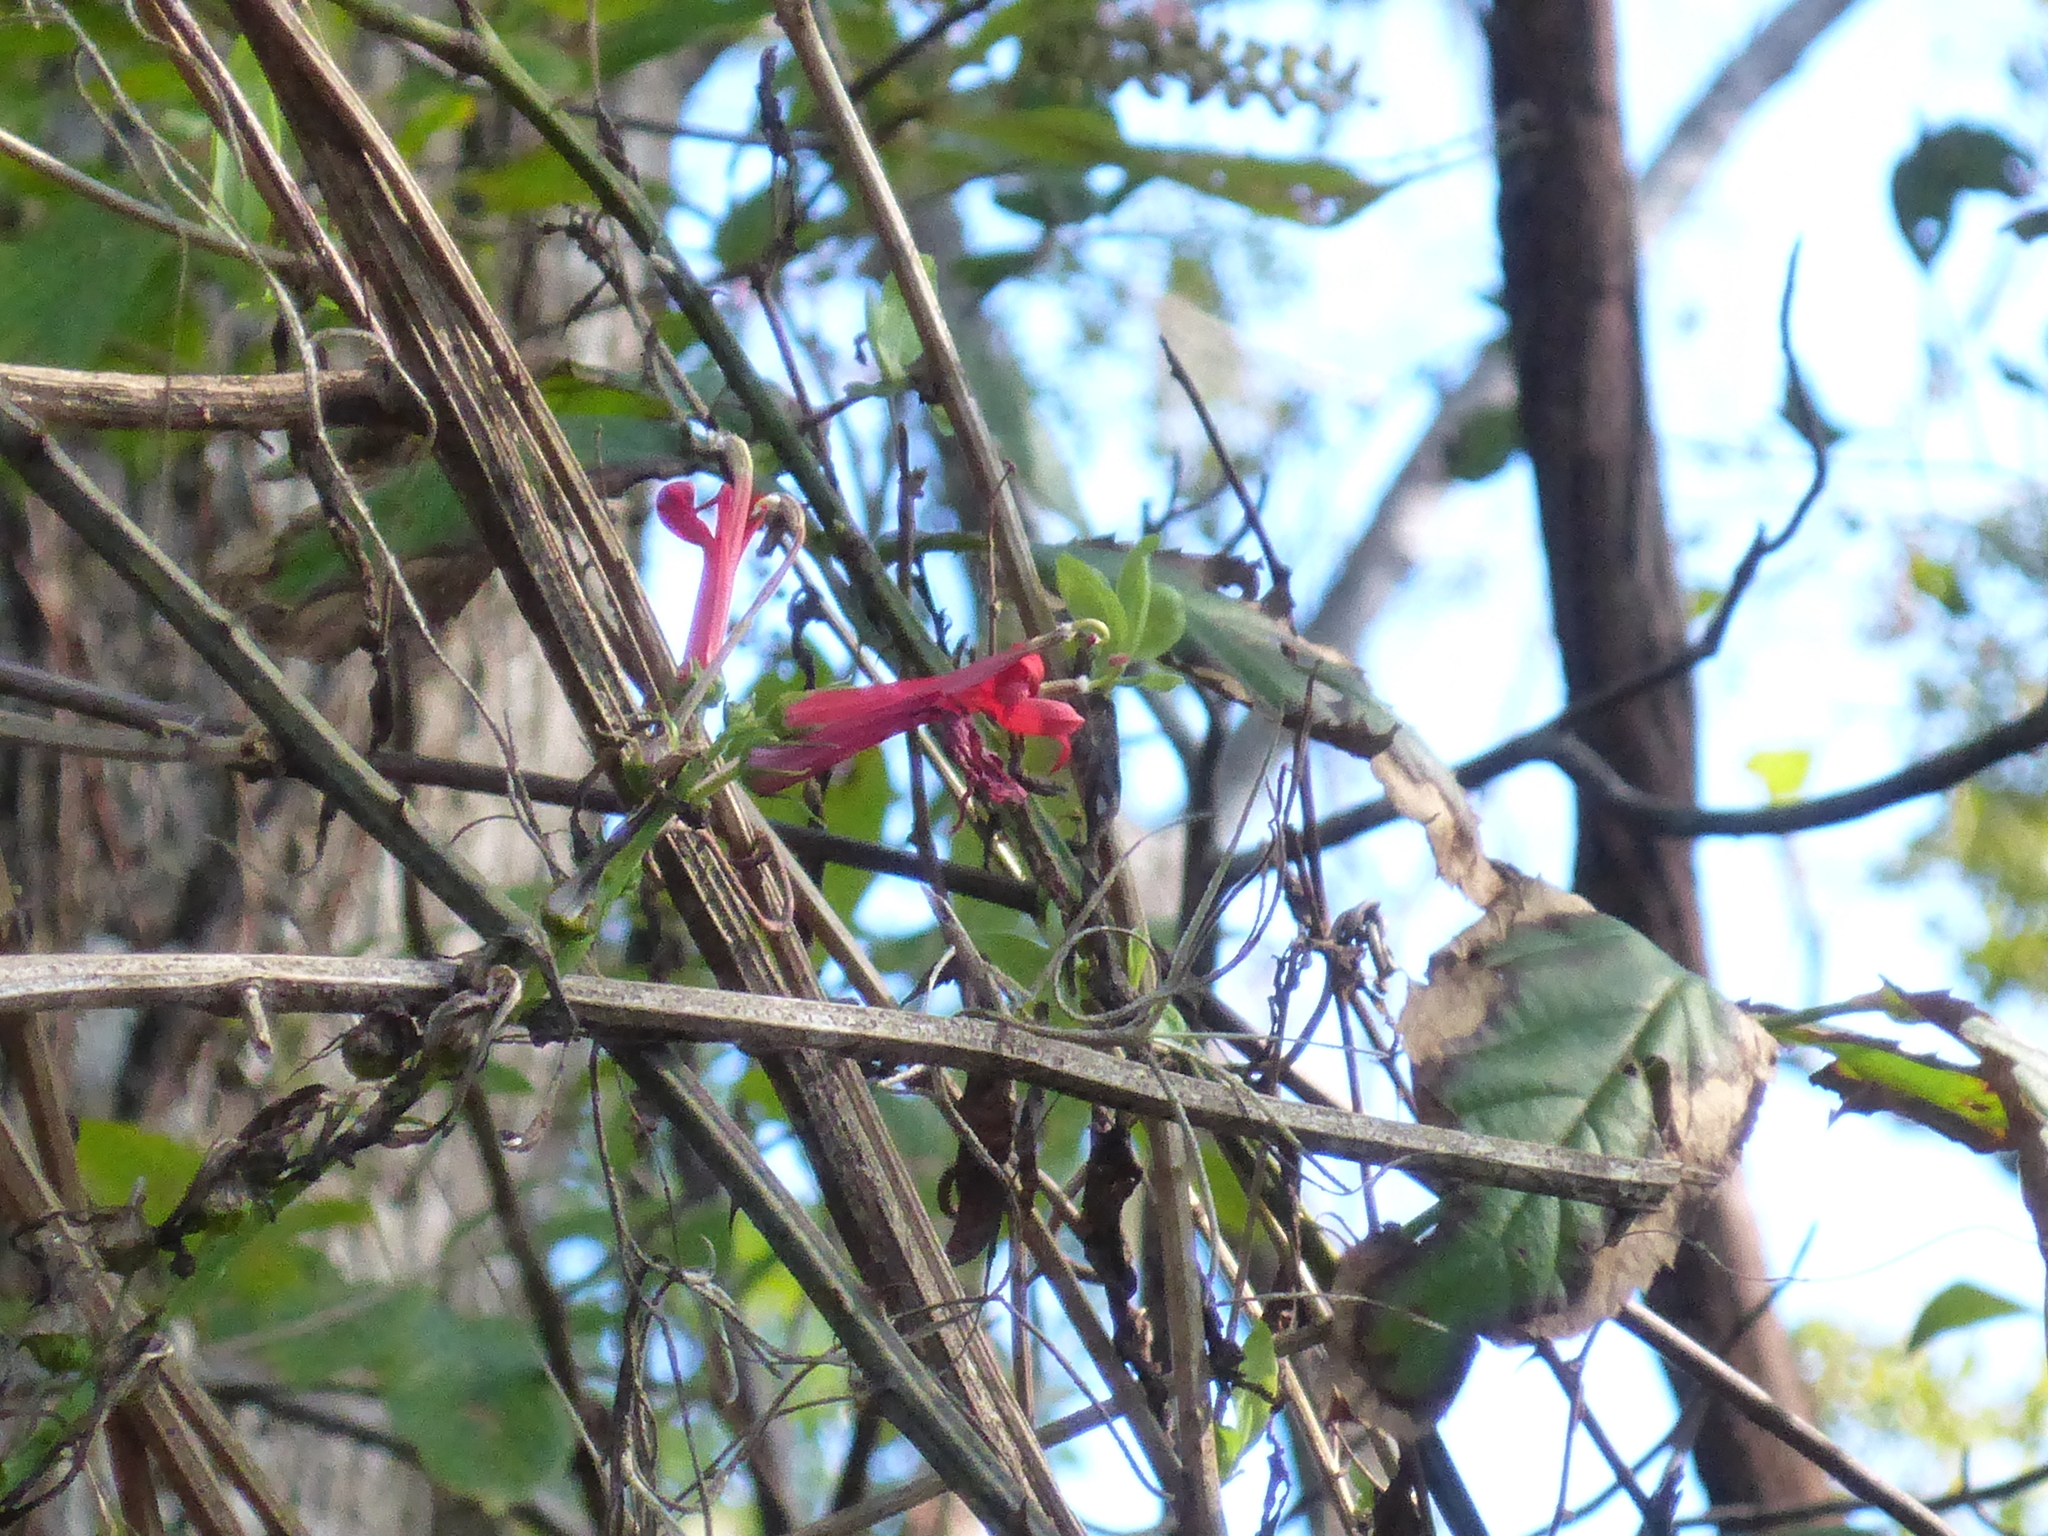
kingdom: Plantae
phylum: Tracheophyta
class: Magnoliopsida
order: Asterales
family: Campanulaceae
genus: Lobelia
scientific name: Lobelia cardinalis
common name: Cardinal flower
